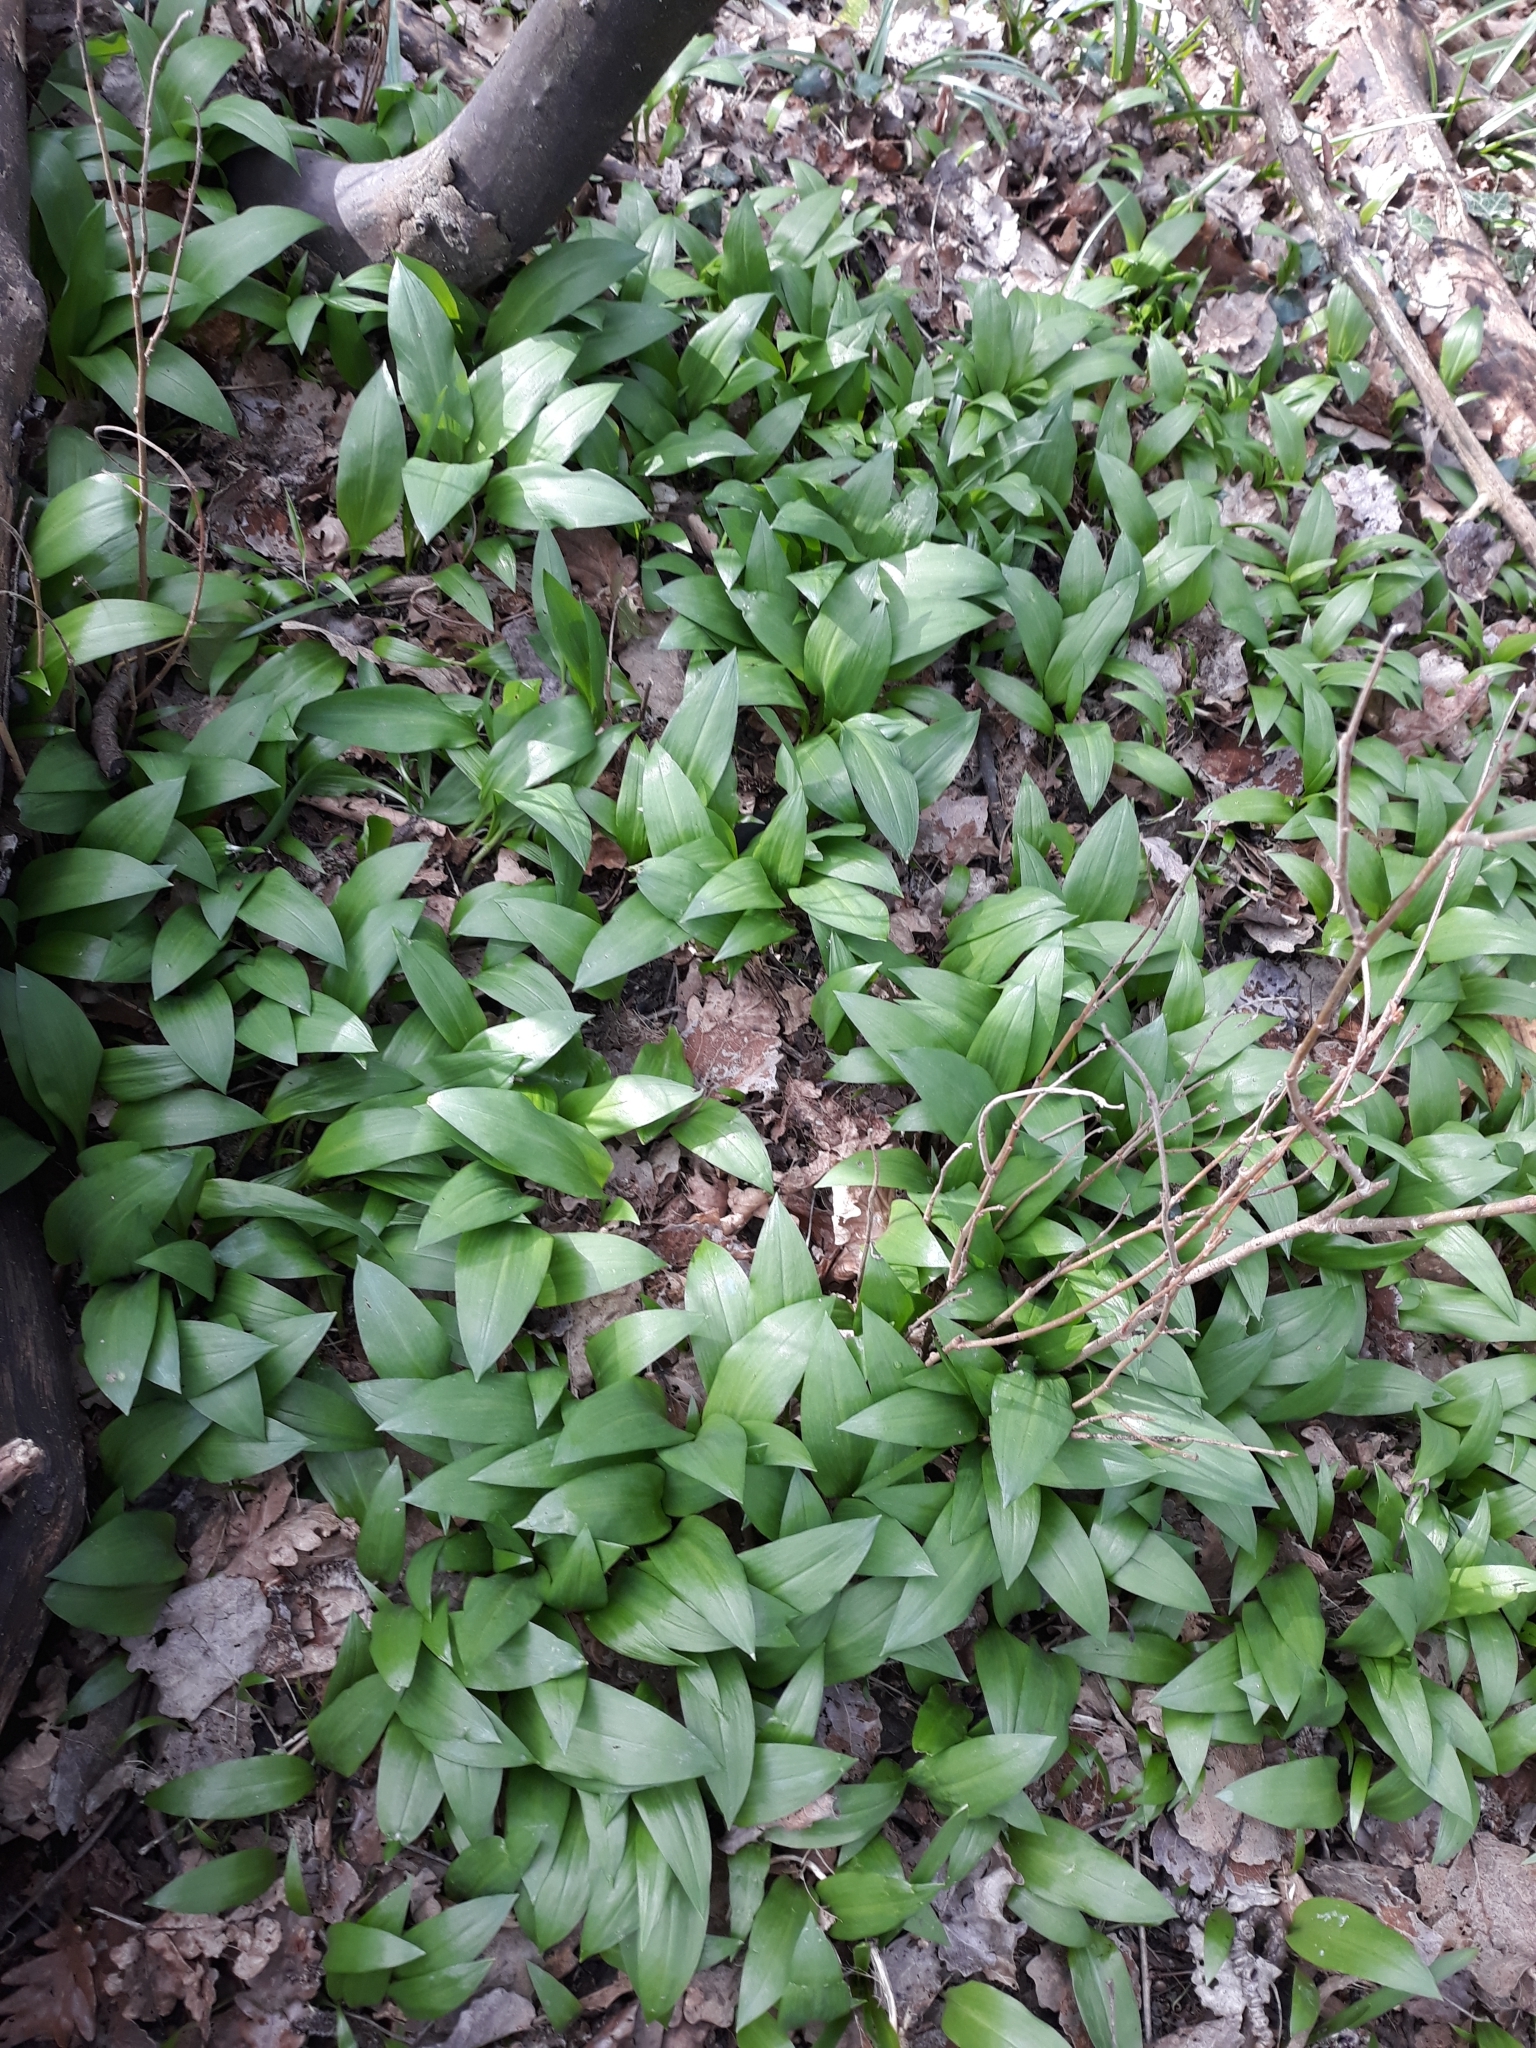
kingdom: Plantae
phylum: Tracheophyta
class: Liliopsida
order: Asparagales
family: Amaryllidaceae
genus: Allium
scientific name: Allium ursinum
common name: Ramsons
